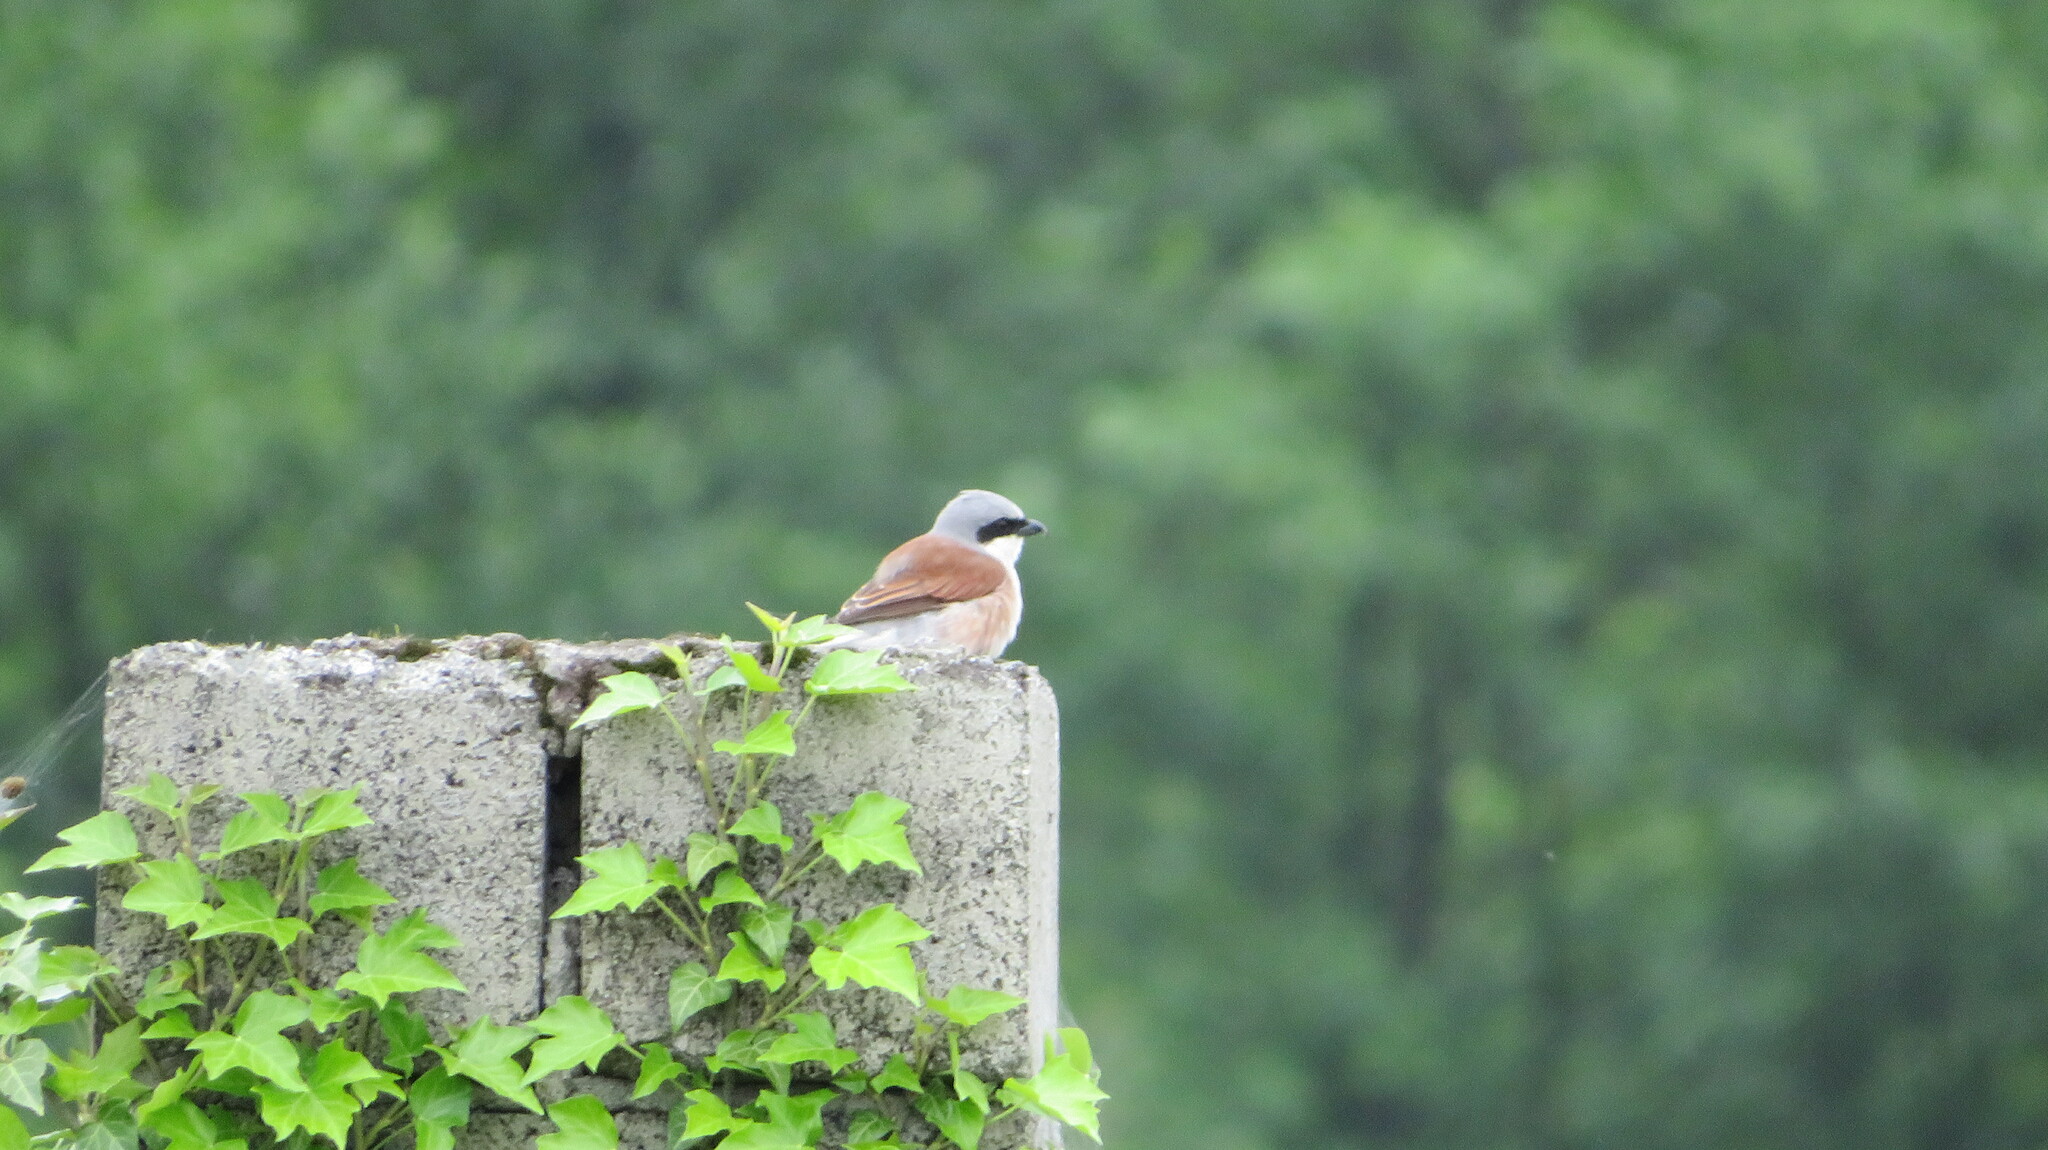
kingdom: Animalia
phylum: Chordata
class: Aves
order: Passeriformes
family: Laniidae
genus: Lanius
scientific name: Lanius collurio
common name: Red-backed shrike
